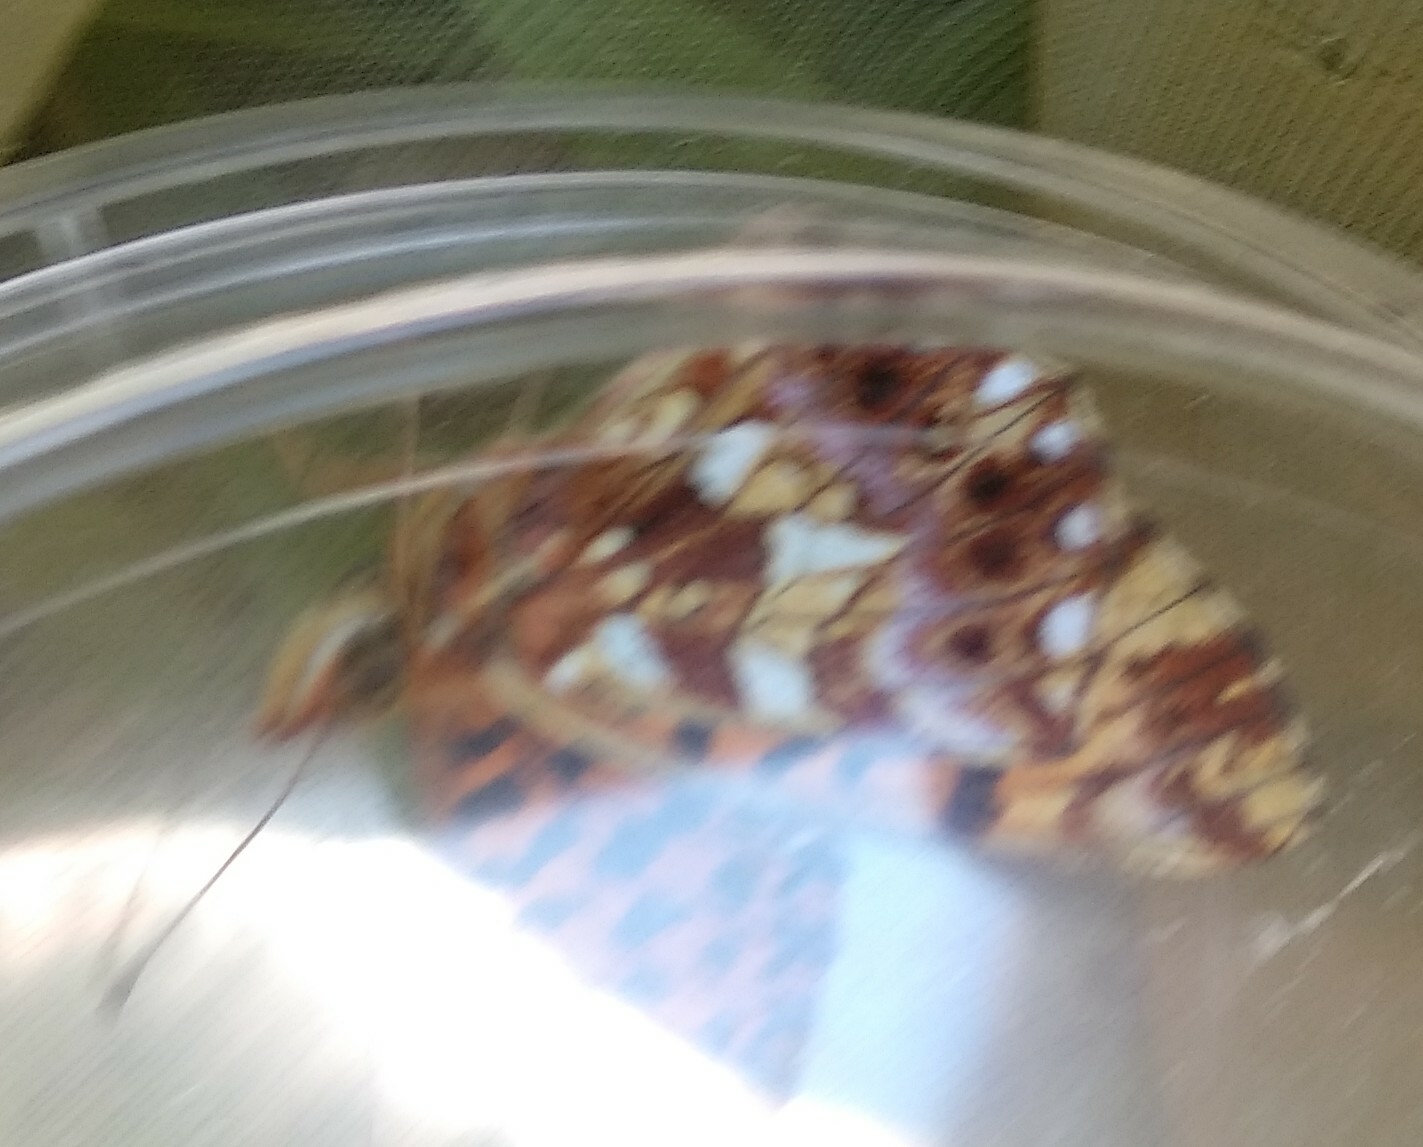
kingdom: Animalia
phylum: Arthropoda
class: Insecta
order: Lepidoptera
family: Nymphalidae
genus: Boloria
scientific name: Boloria dia
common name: Weaver's fritillary
